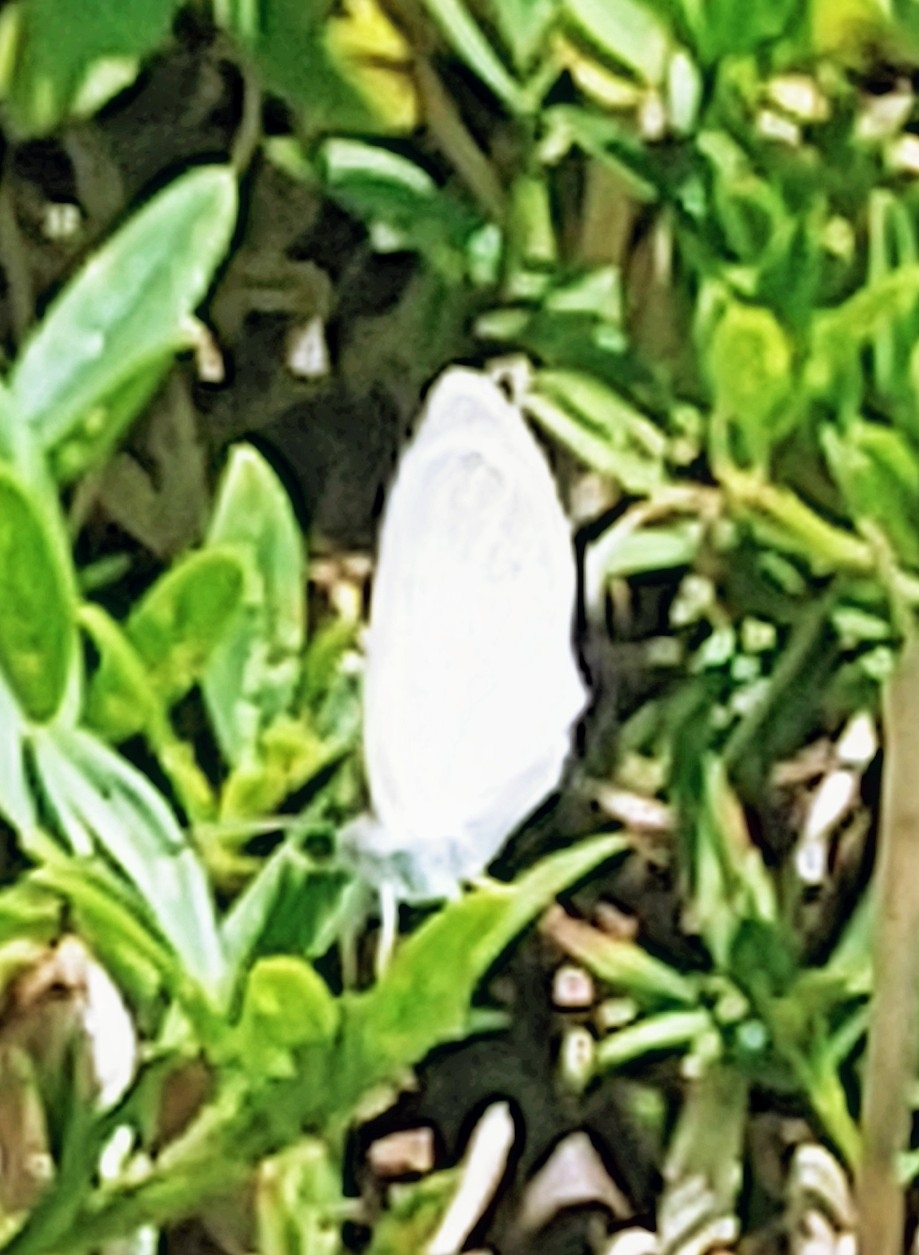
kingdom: Animalia
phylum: Arthropoda
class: Insecta
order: Lepidoptera
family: Pieridae
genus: Eurema
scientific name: Eurema daira
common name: Barred sulphur
